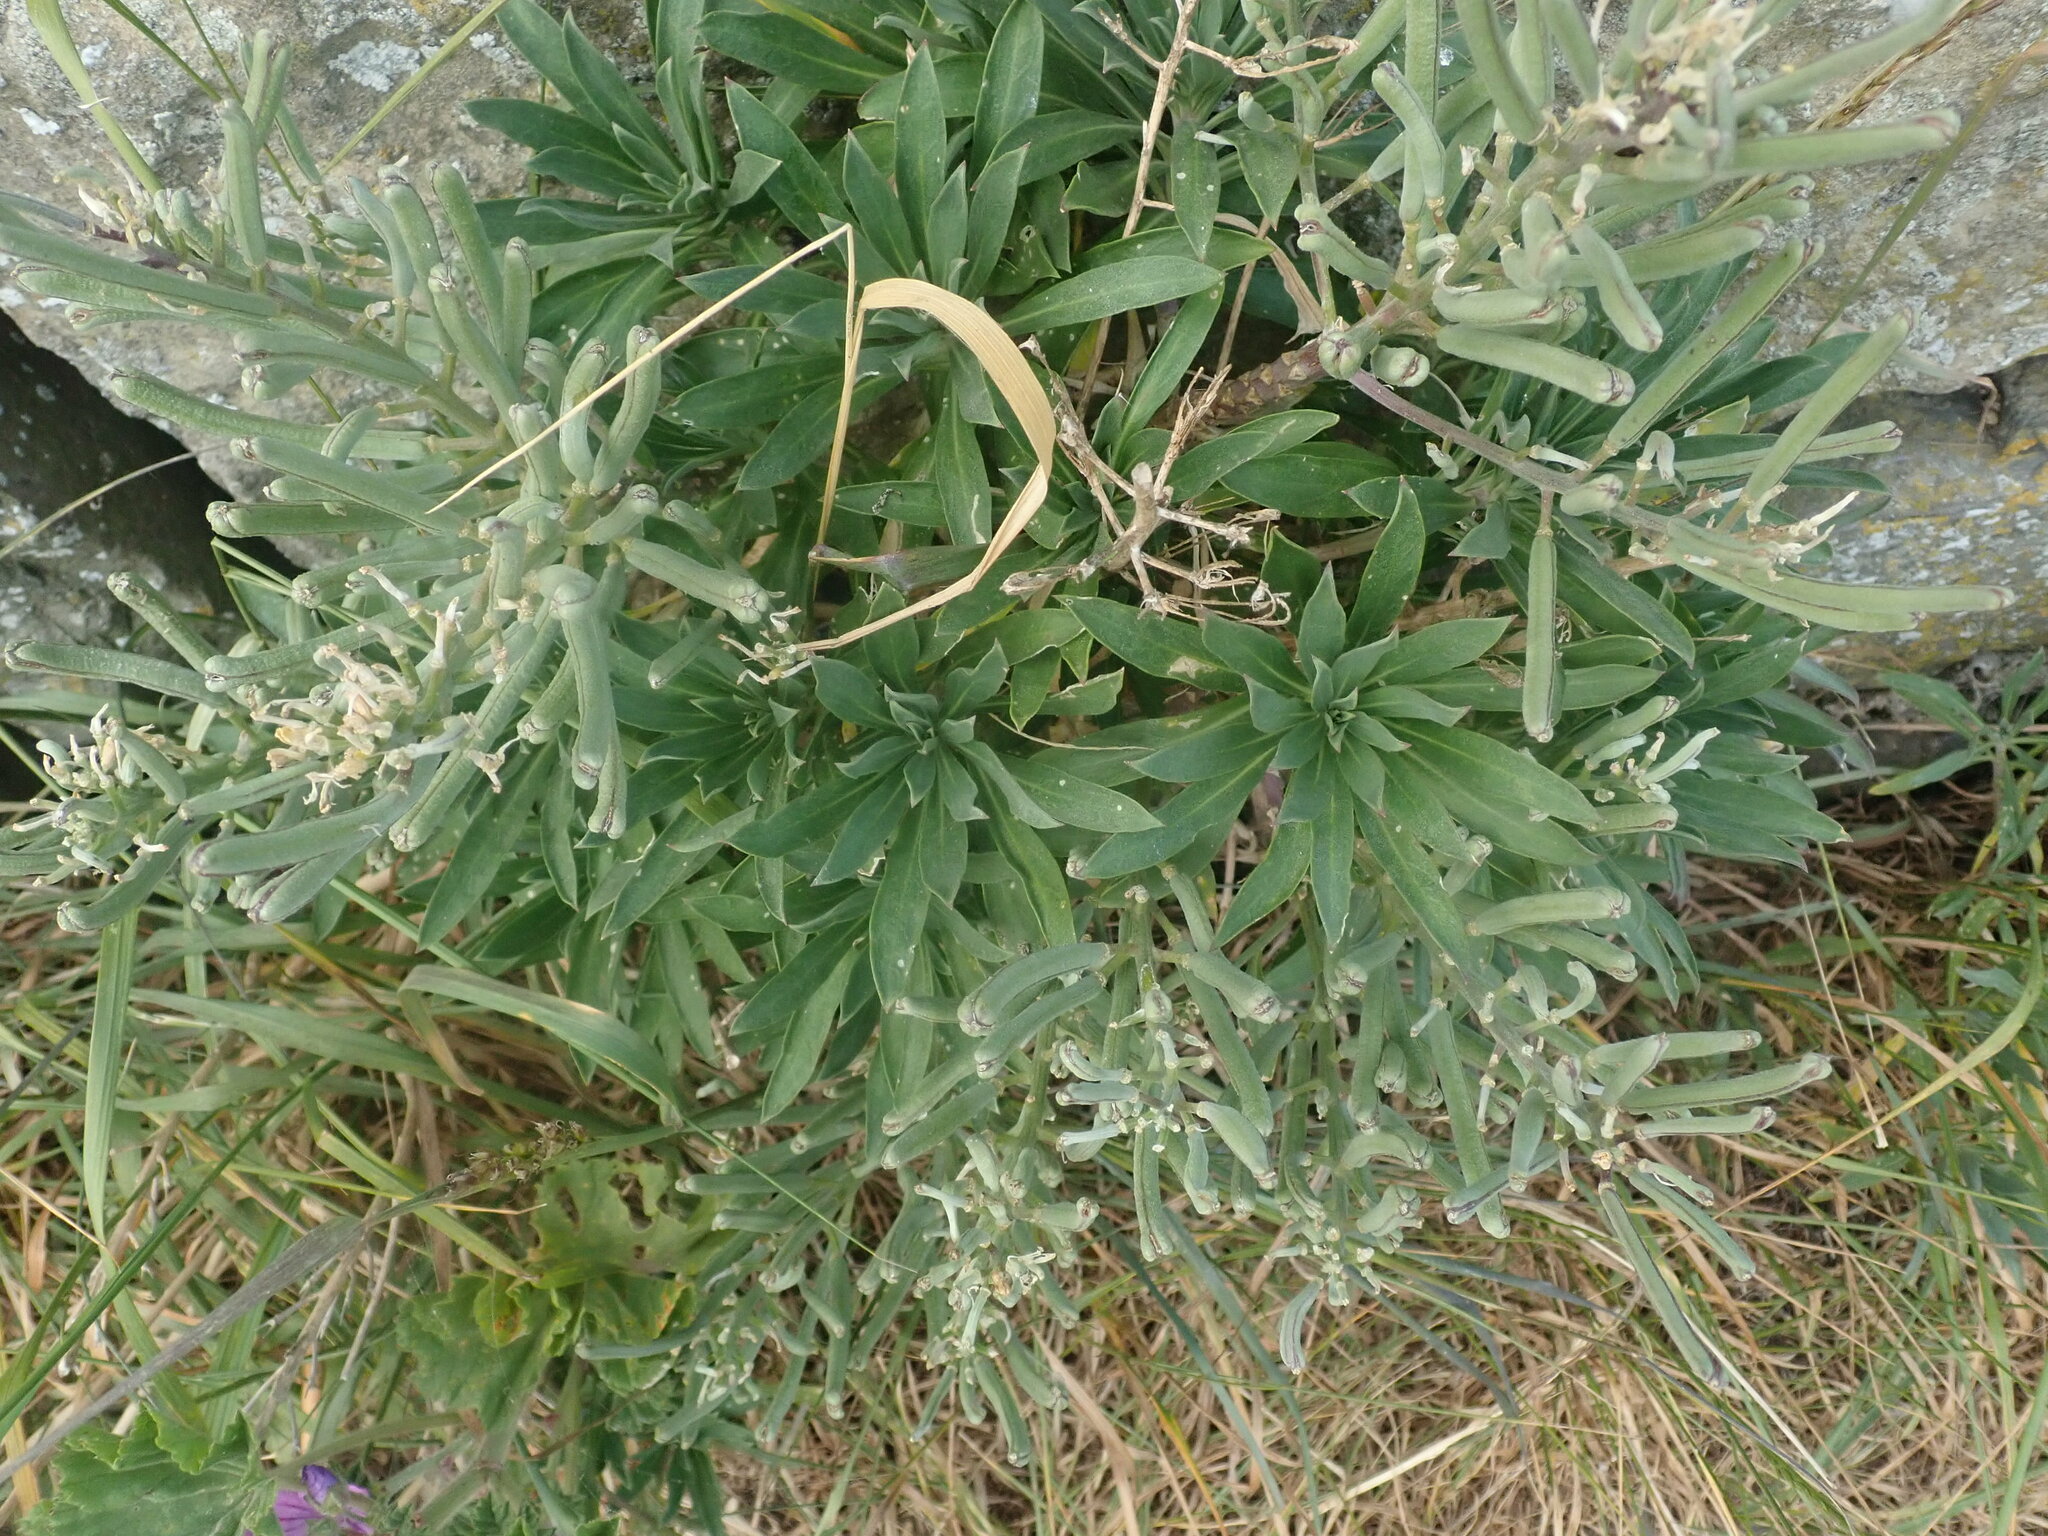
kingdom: Plantae
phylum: Tracheophyta
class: Magnoliopsida
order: Brassicales
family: Brassicaceae
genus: Erysimum
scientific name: Erysimum cheiri
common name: Wallflower
